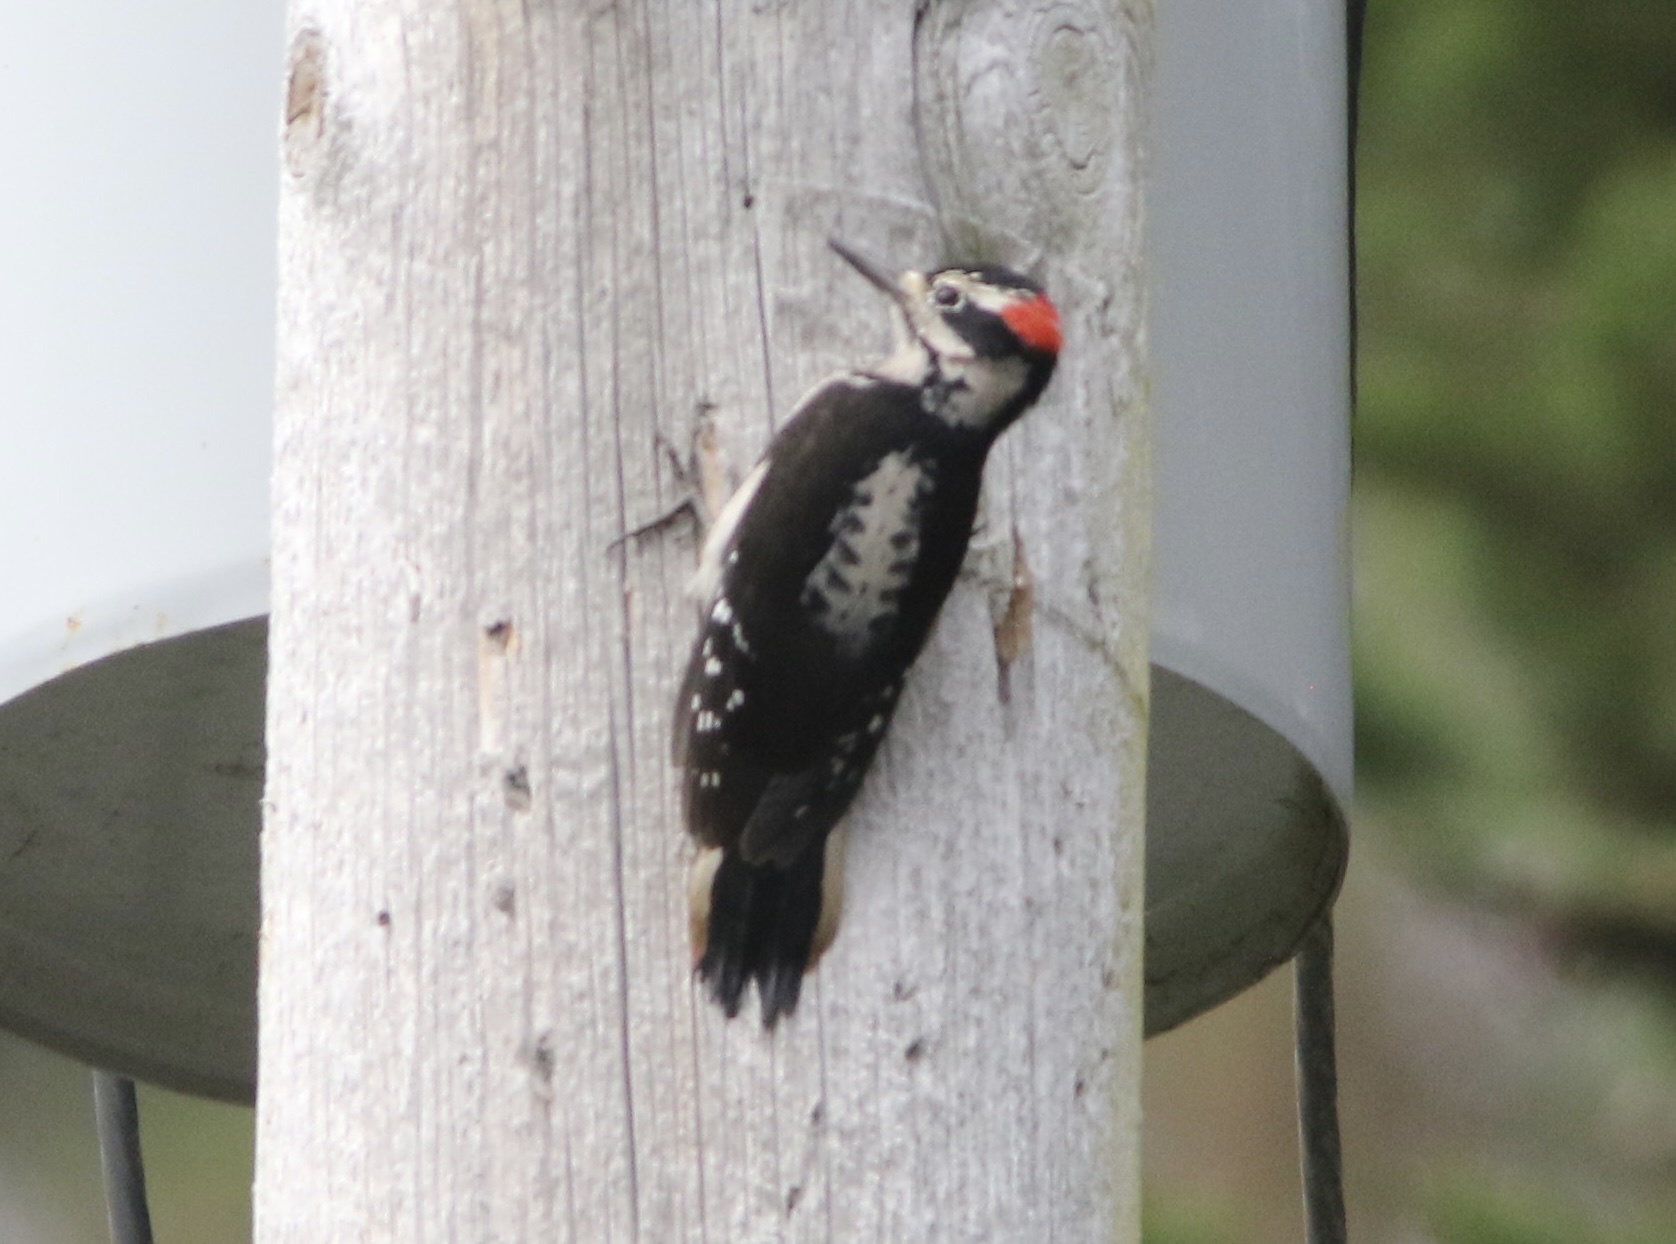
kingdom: Animalia
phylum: Chordata
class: Aves
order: Piciformes
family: Picidae
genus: Leuconotopicus
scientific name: Leuconotopicus villosus
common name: Hairy woodpecker
